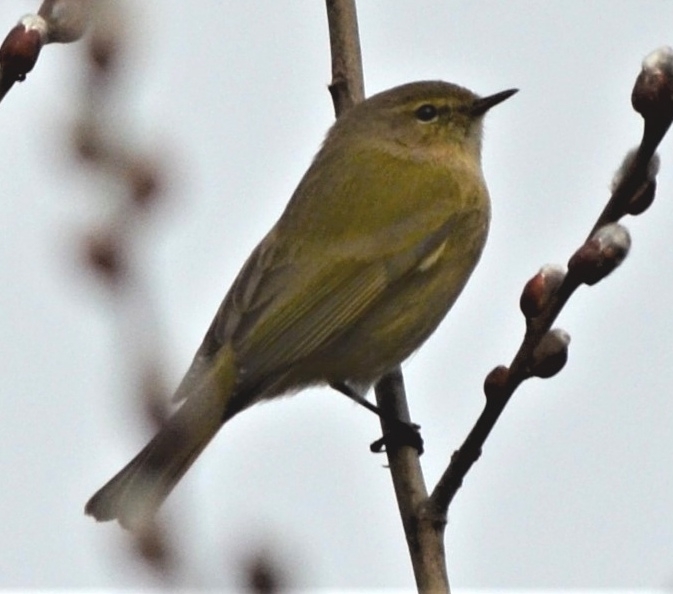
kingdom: Animalia
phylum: Chordata
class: Aves
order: Passeriformes
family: Phylloscopidae
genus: Phylloscopus
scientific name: Phylloscopus collybita
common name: Common chiffchaff
